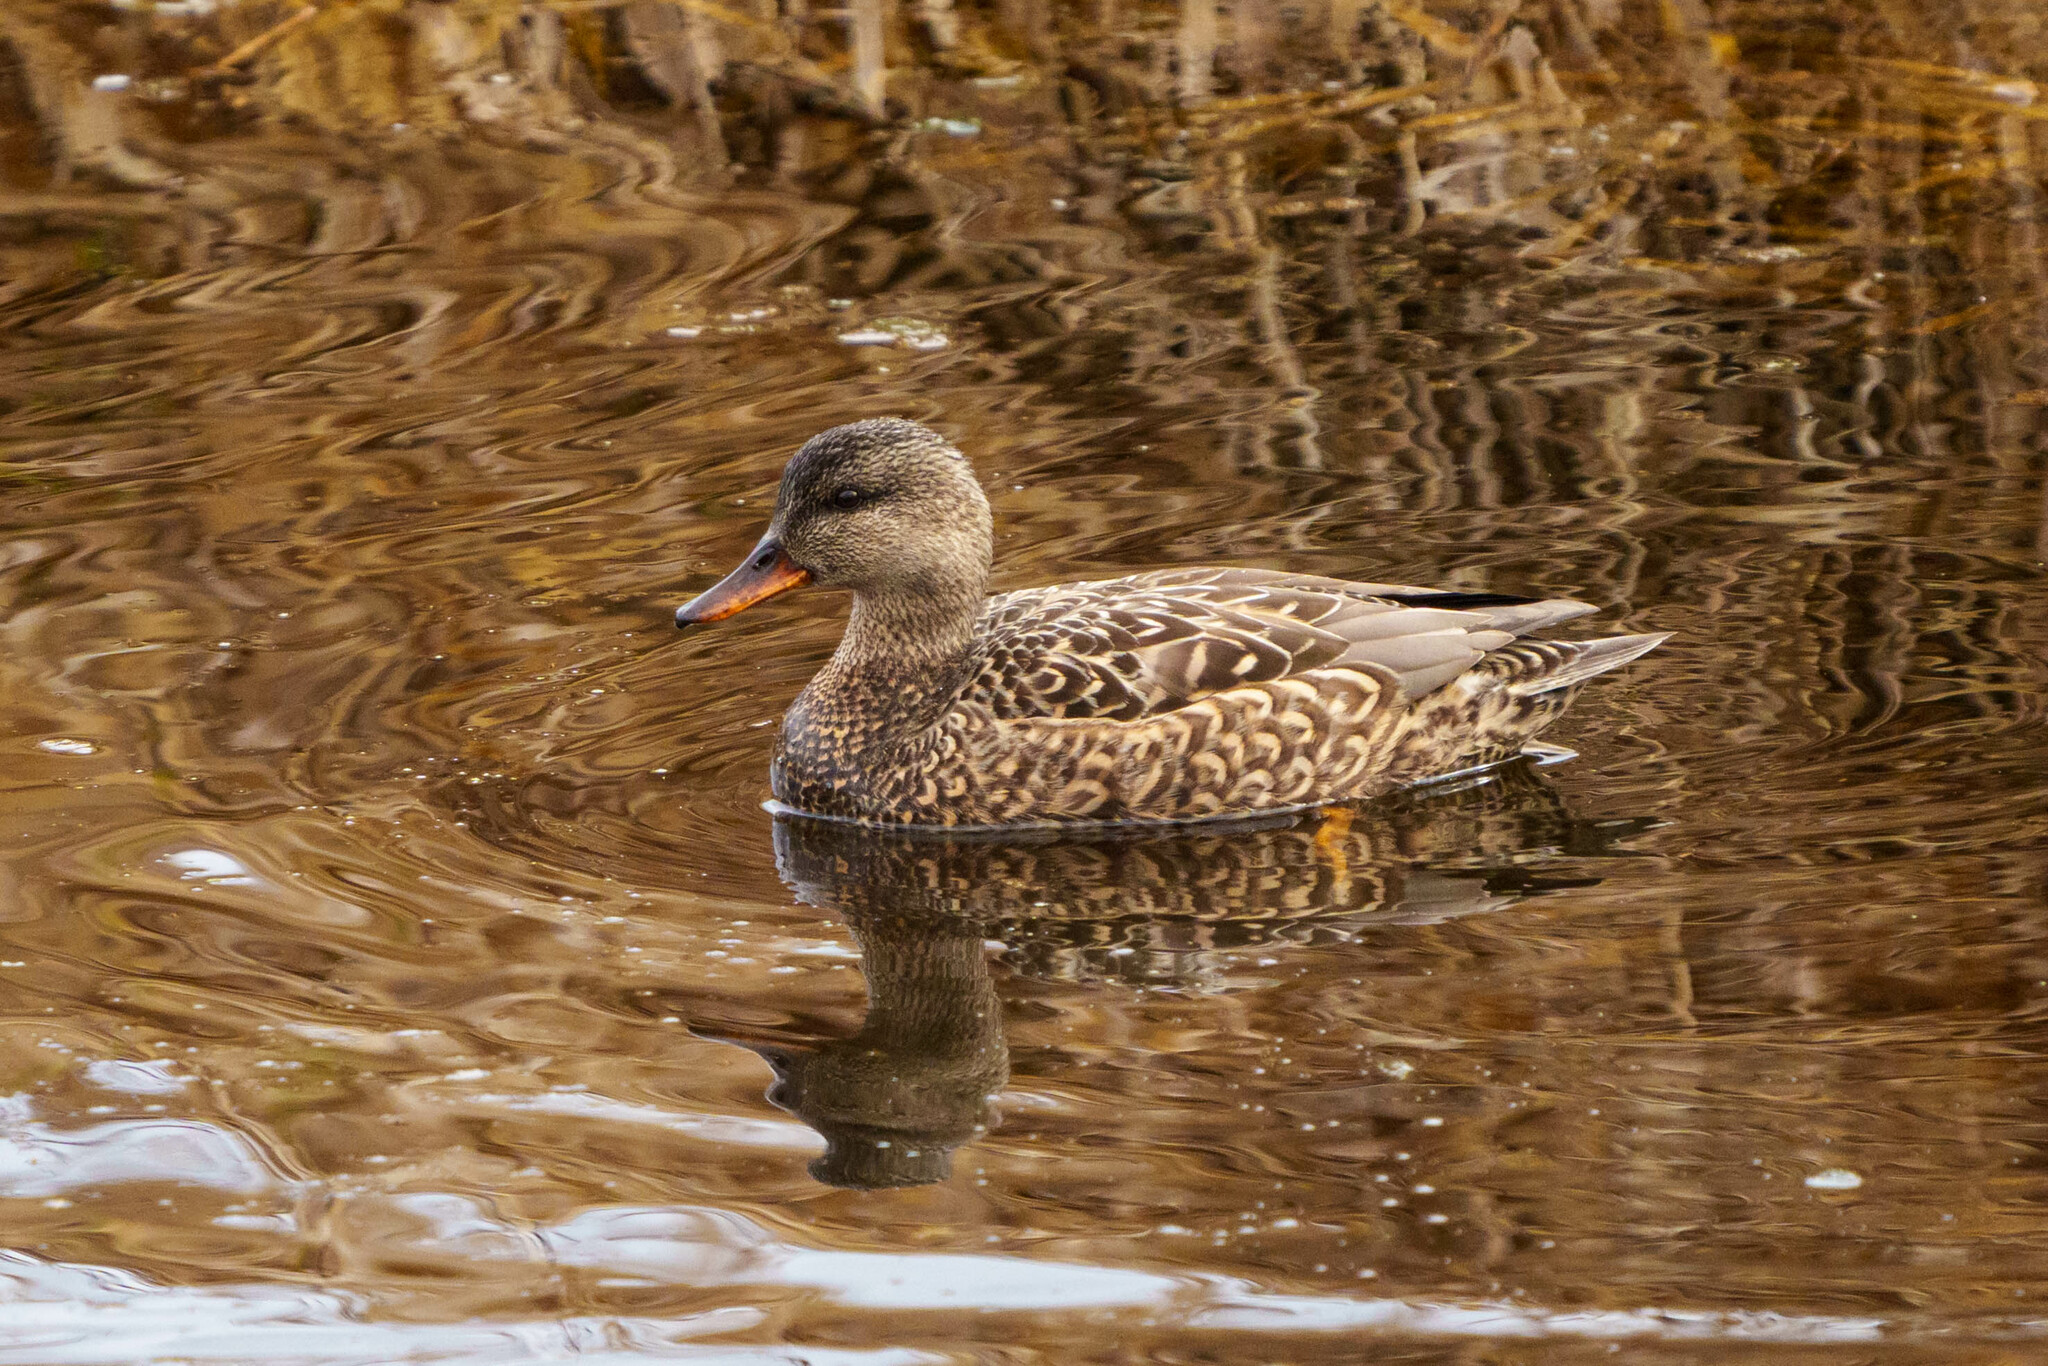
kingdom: Animalia
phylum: Chordata
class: Aves
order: Anseriformes
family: Anatidae
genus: Mareca
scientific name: Mareca strepera
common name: Gadwall
